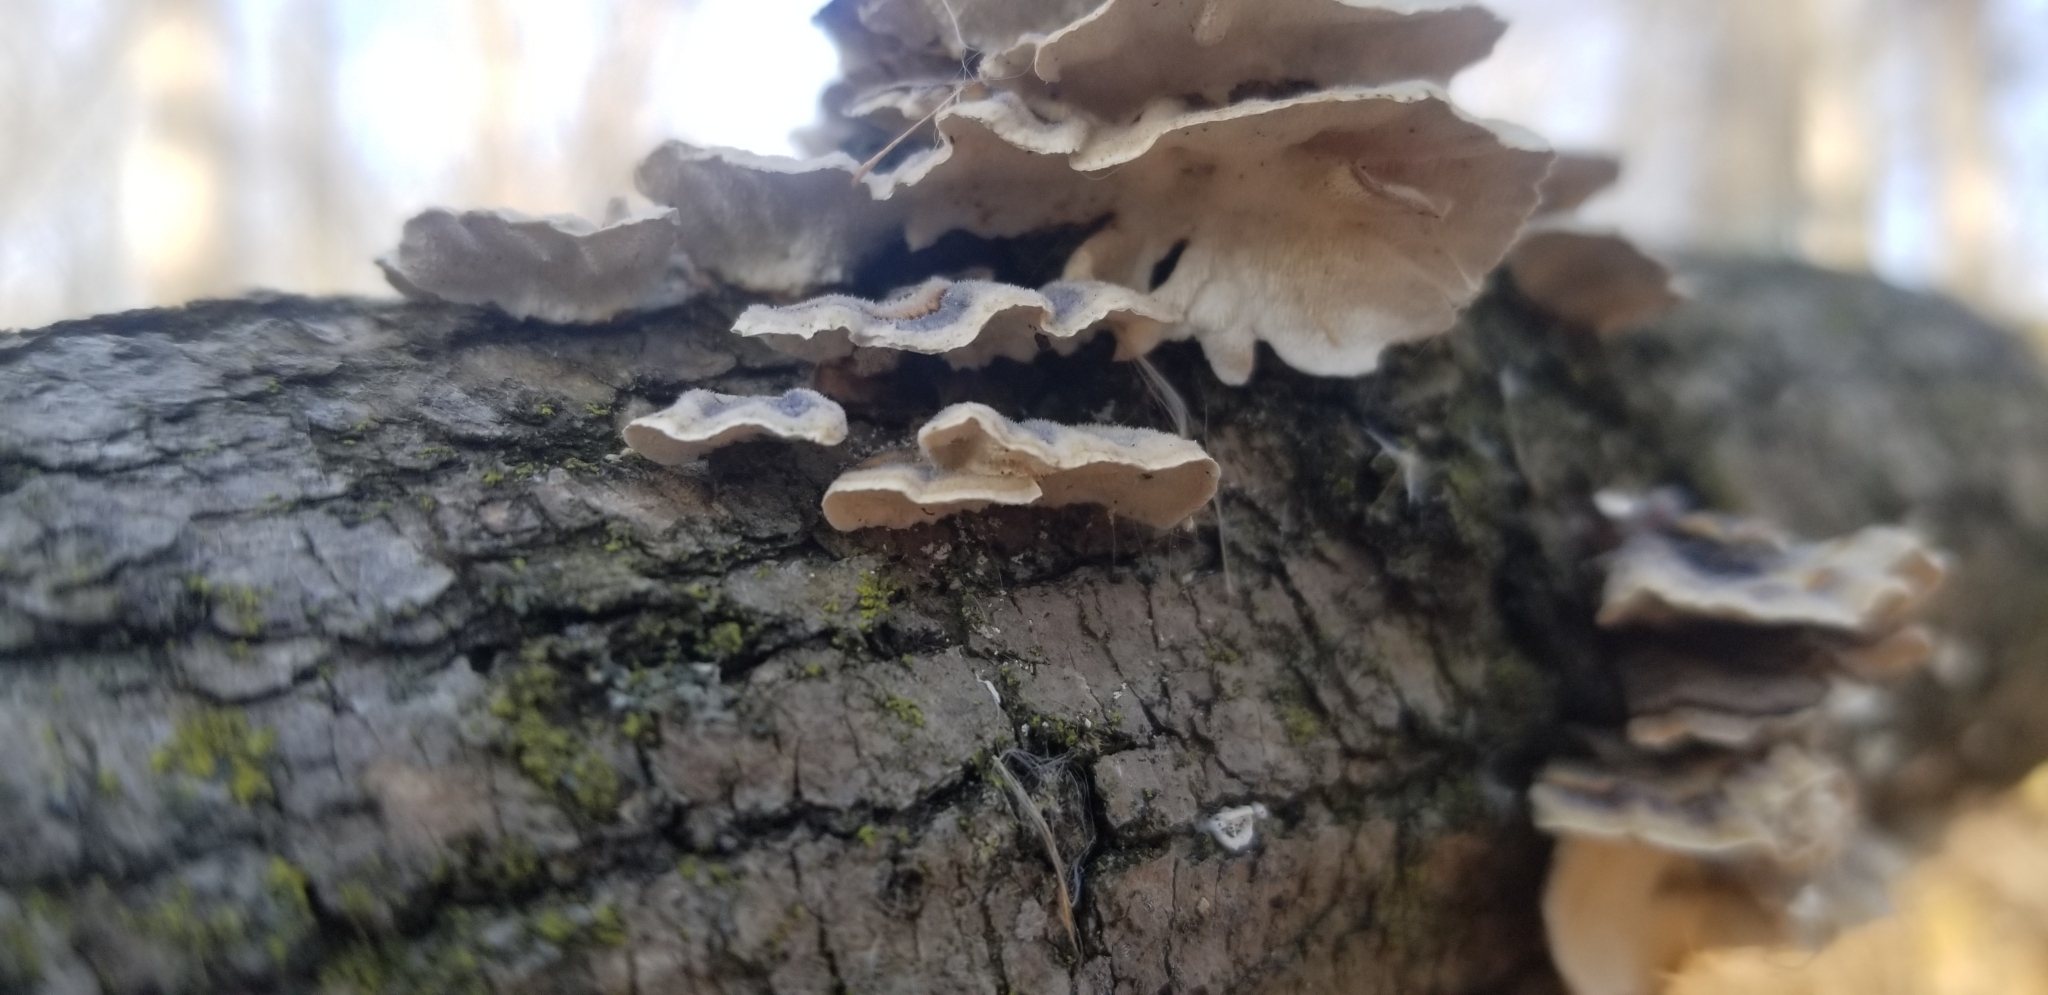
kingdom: Fungi
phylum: Basidiomycota
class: Agaricomycetes
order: Polyporales
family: Polyporaceae
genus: Trametes
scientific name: Trametes versicolor
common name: Turkeytail
